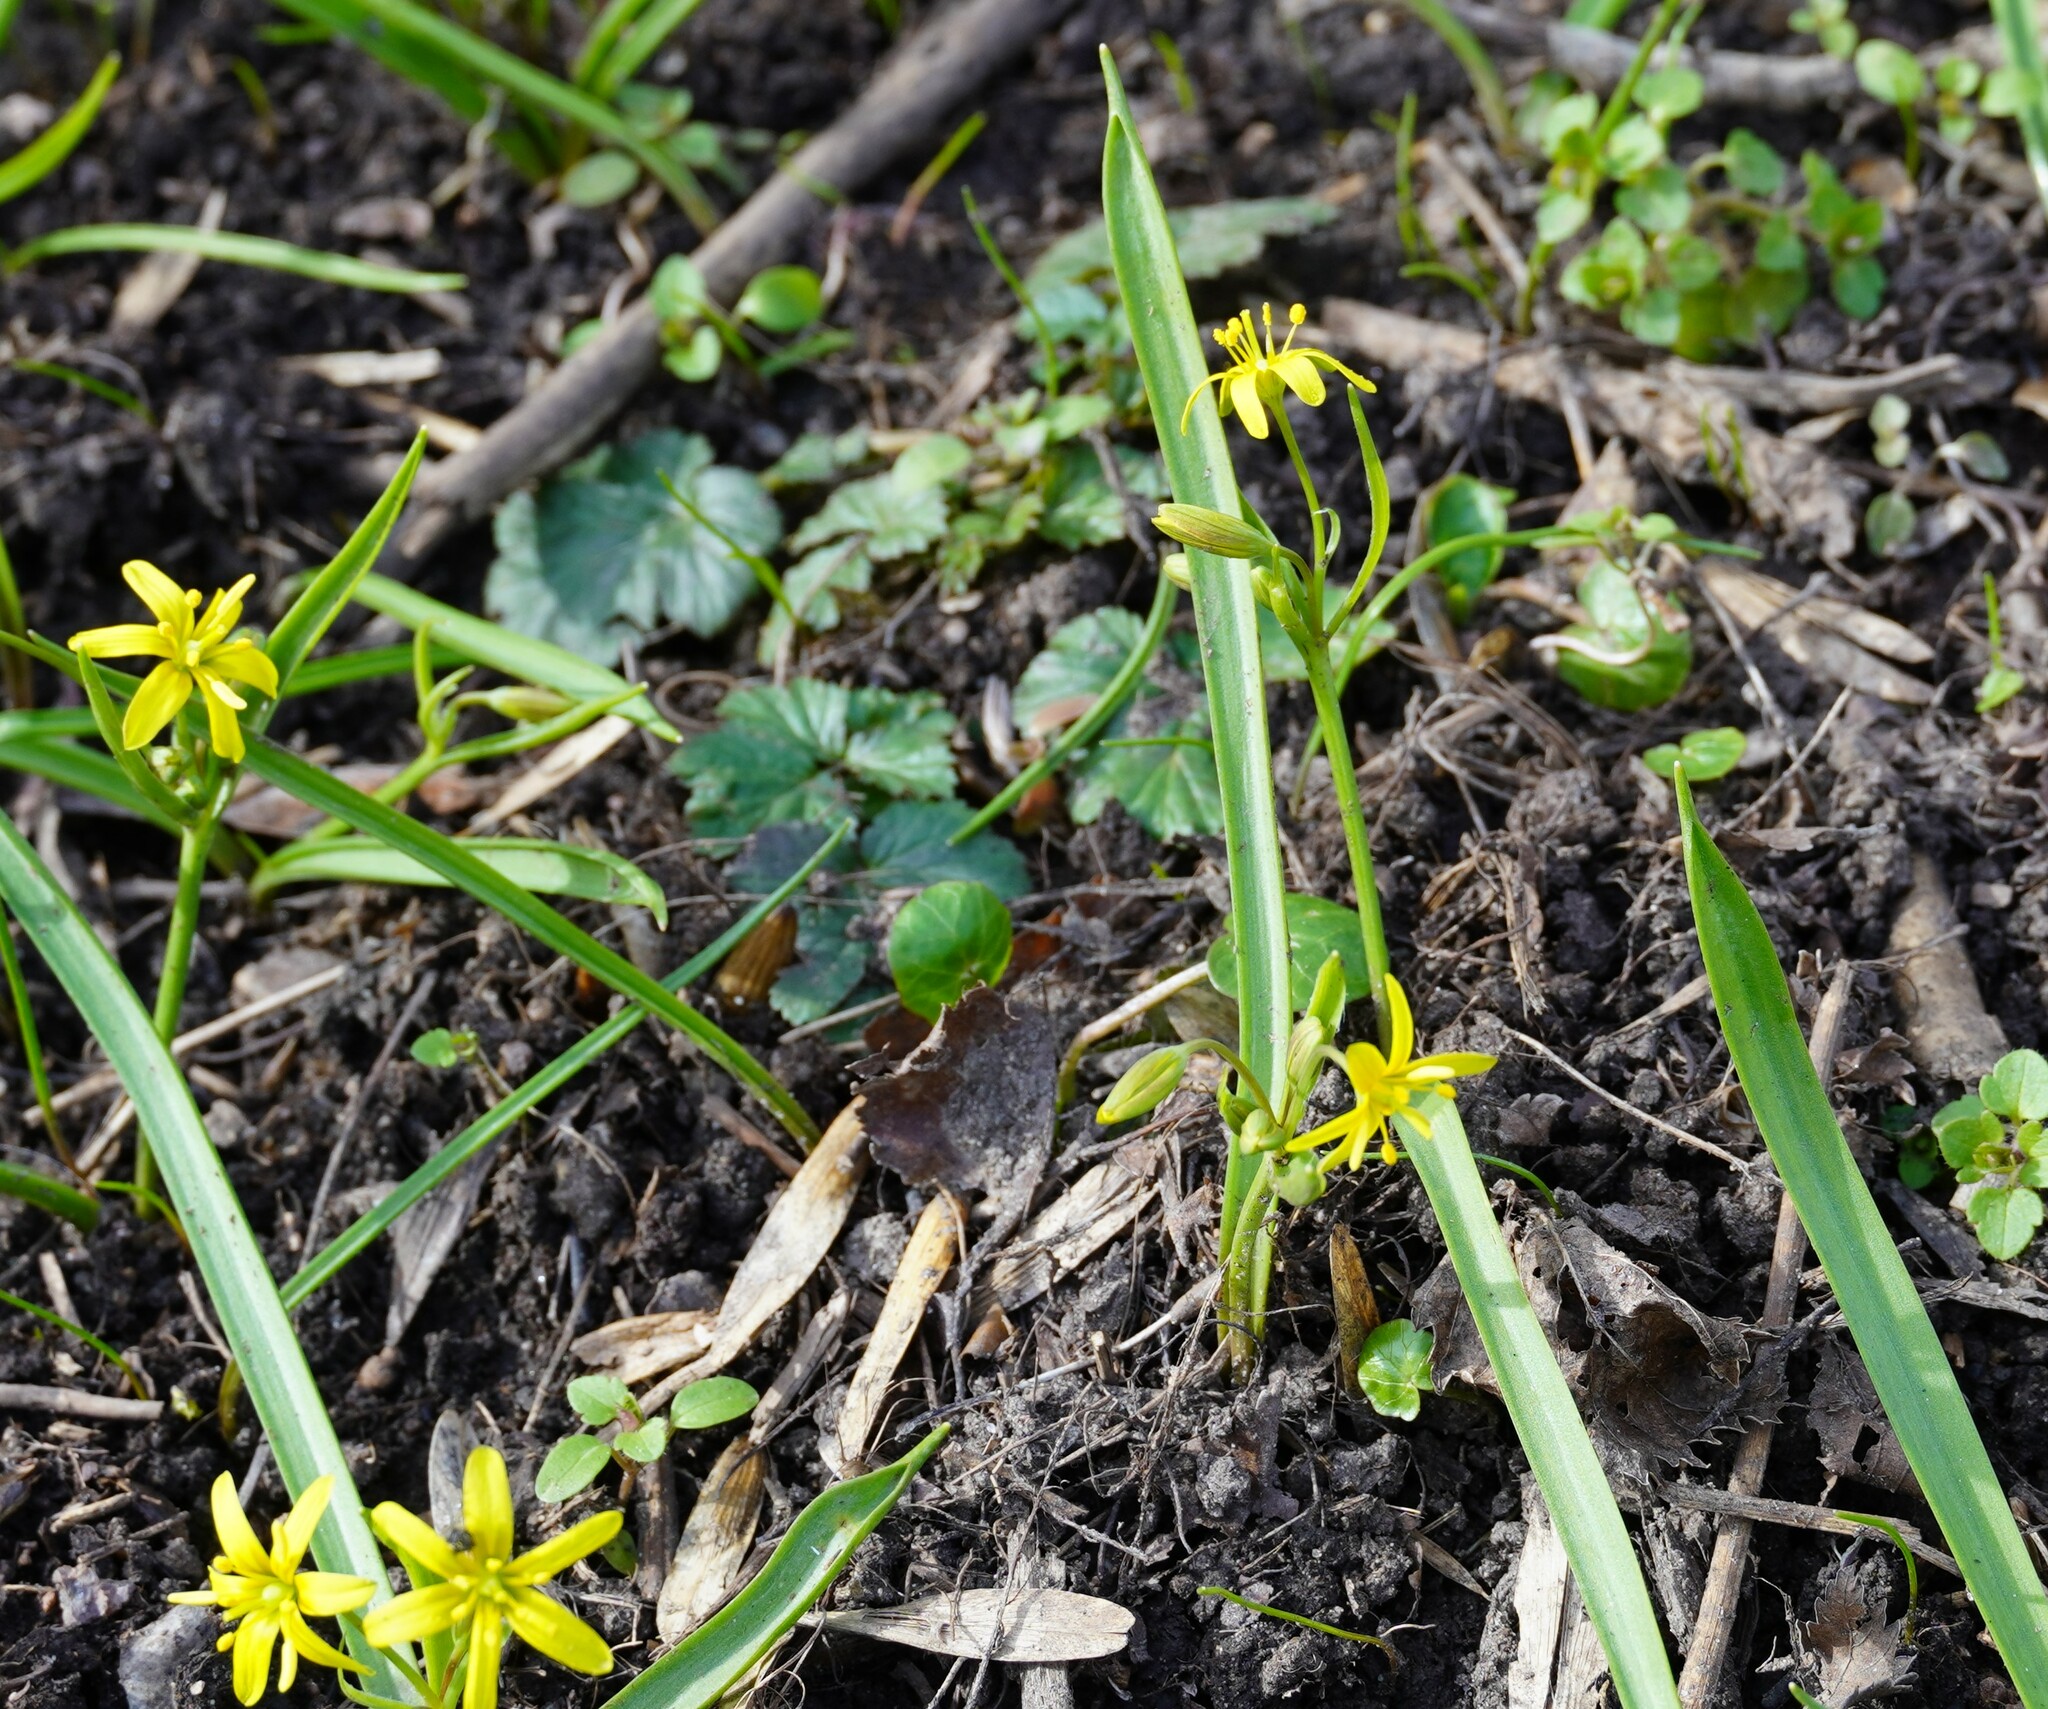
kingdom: Plantae
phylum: Tracheophyta
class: Liliopsida
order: Liliales
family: Liliaceae
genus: Gagea
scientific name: Gagea lutea
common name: Yellow star-of-bethlehem
